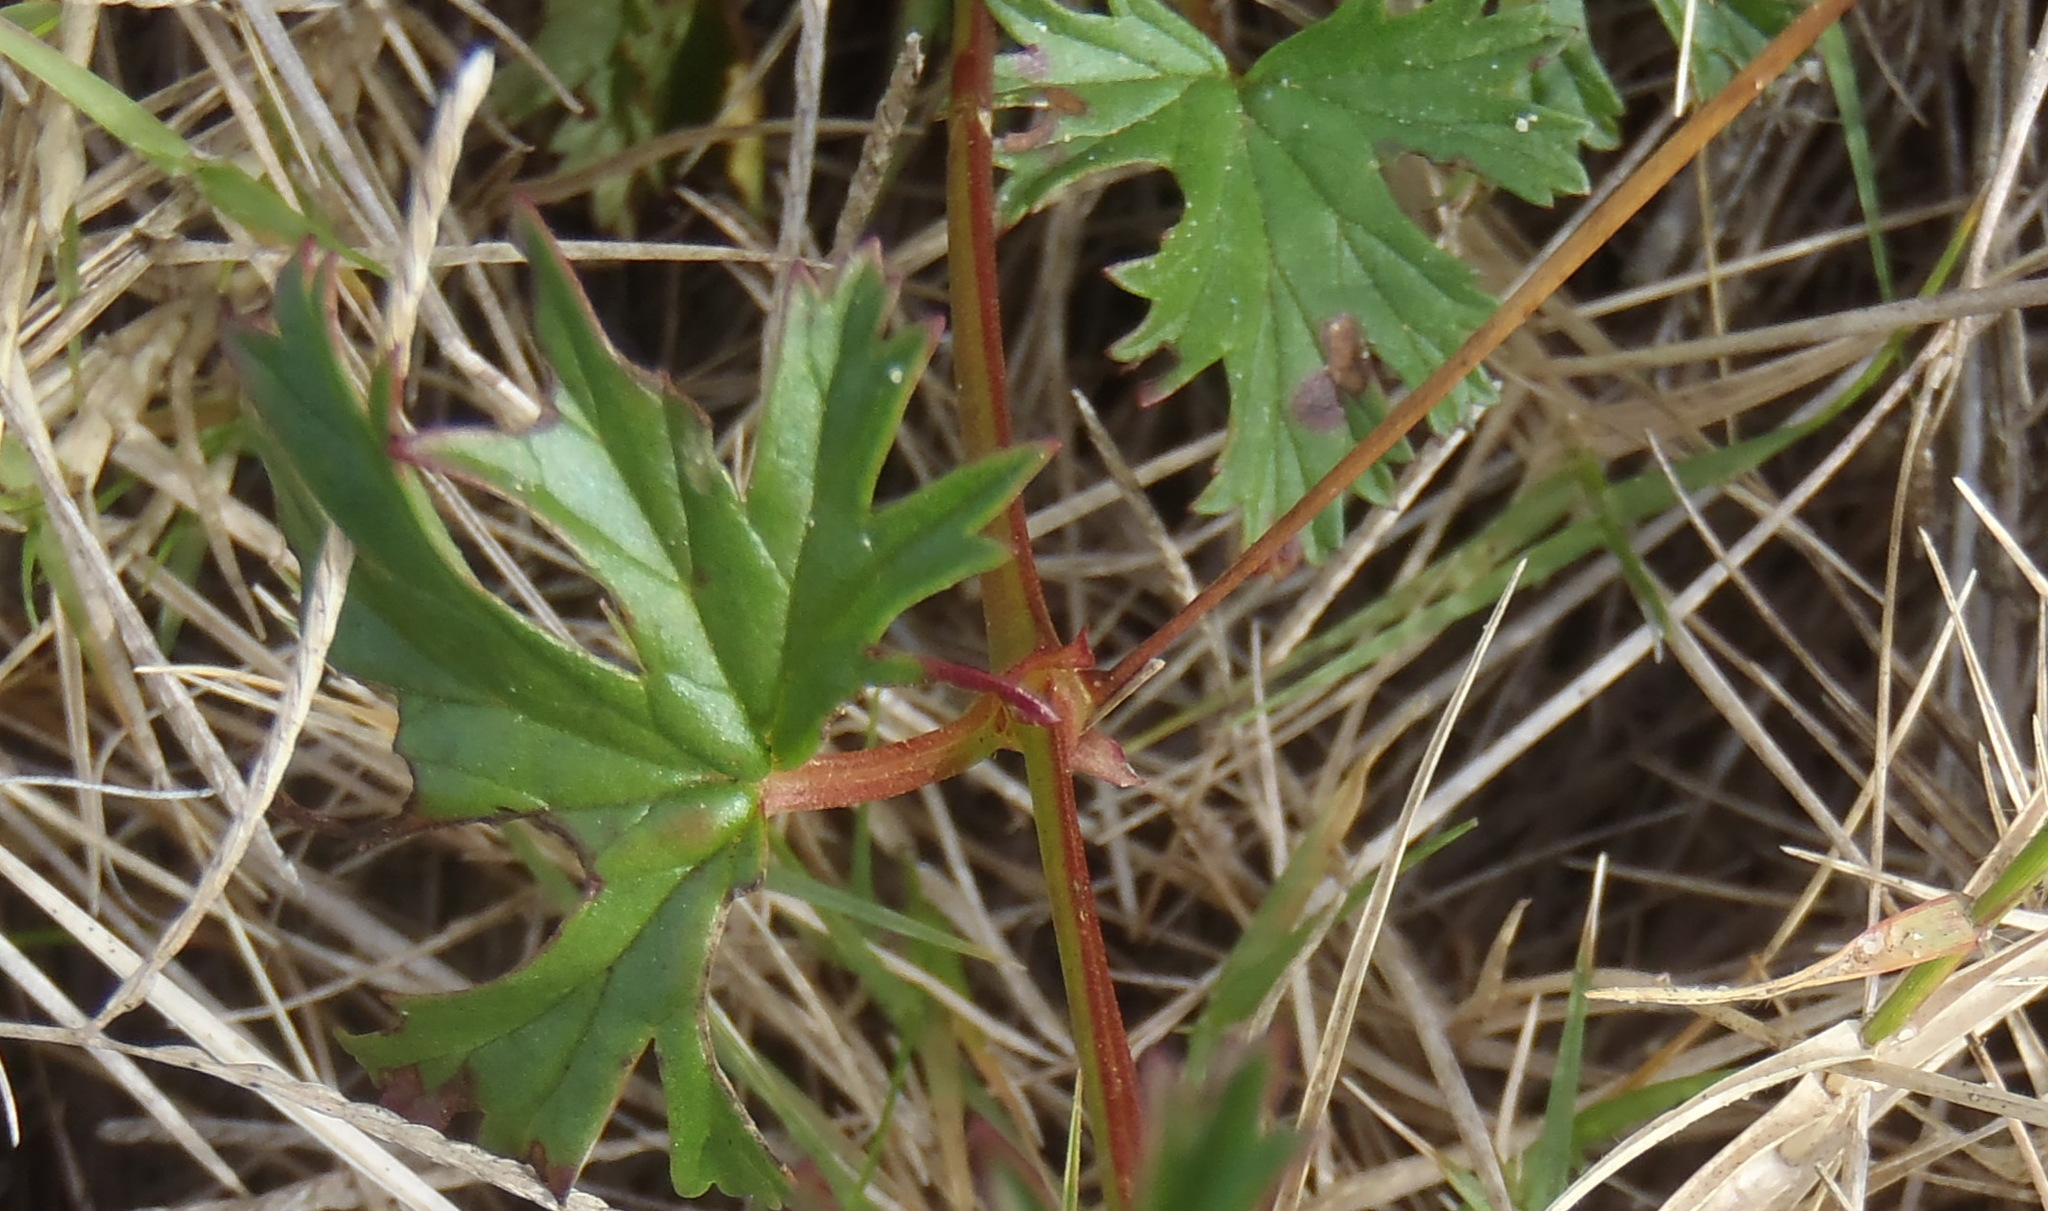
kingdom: Plantae
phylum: Tracheophyta
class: Magnoliopsida
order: Geraniales
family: Geraniaceae
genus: Pelargonium
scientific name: Pelargonium columbinum
